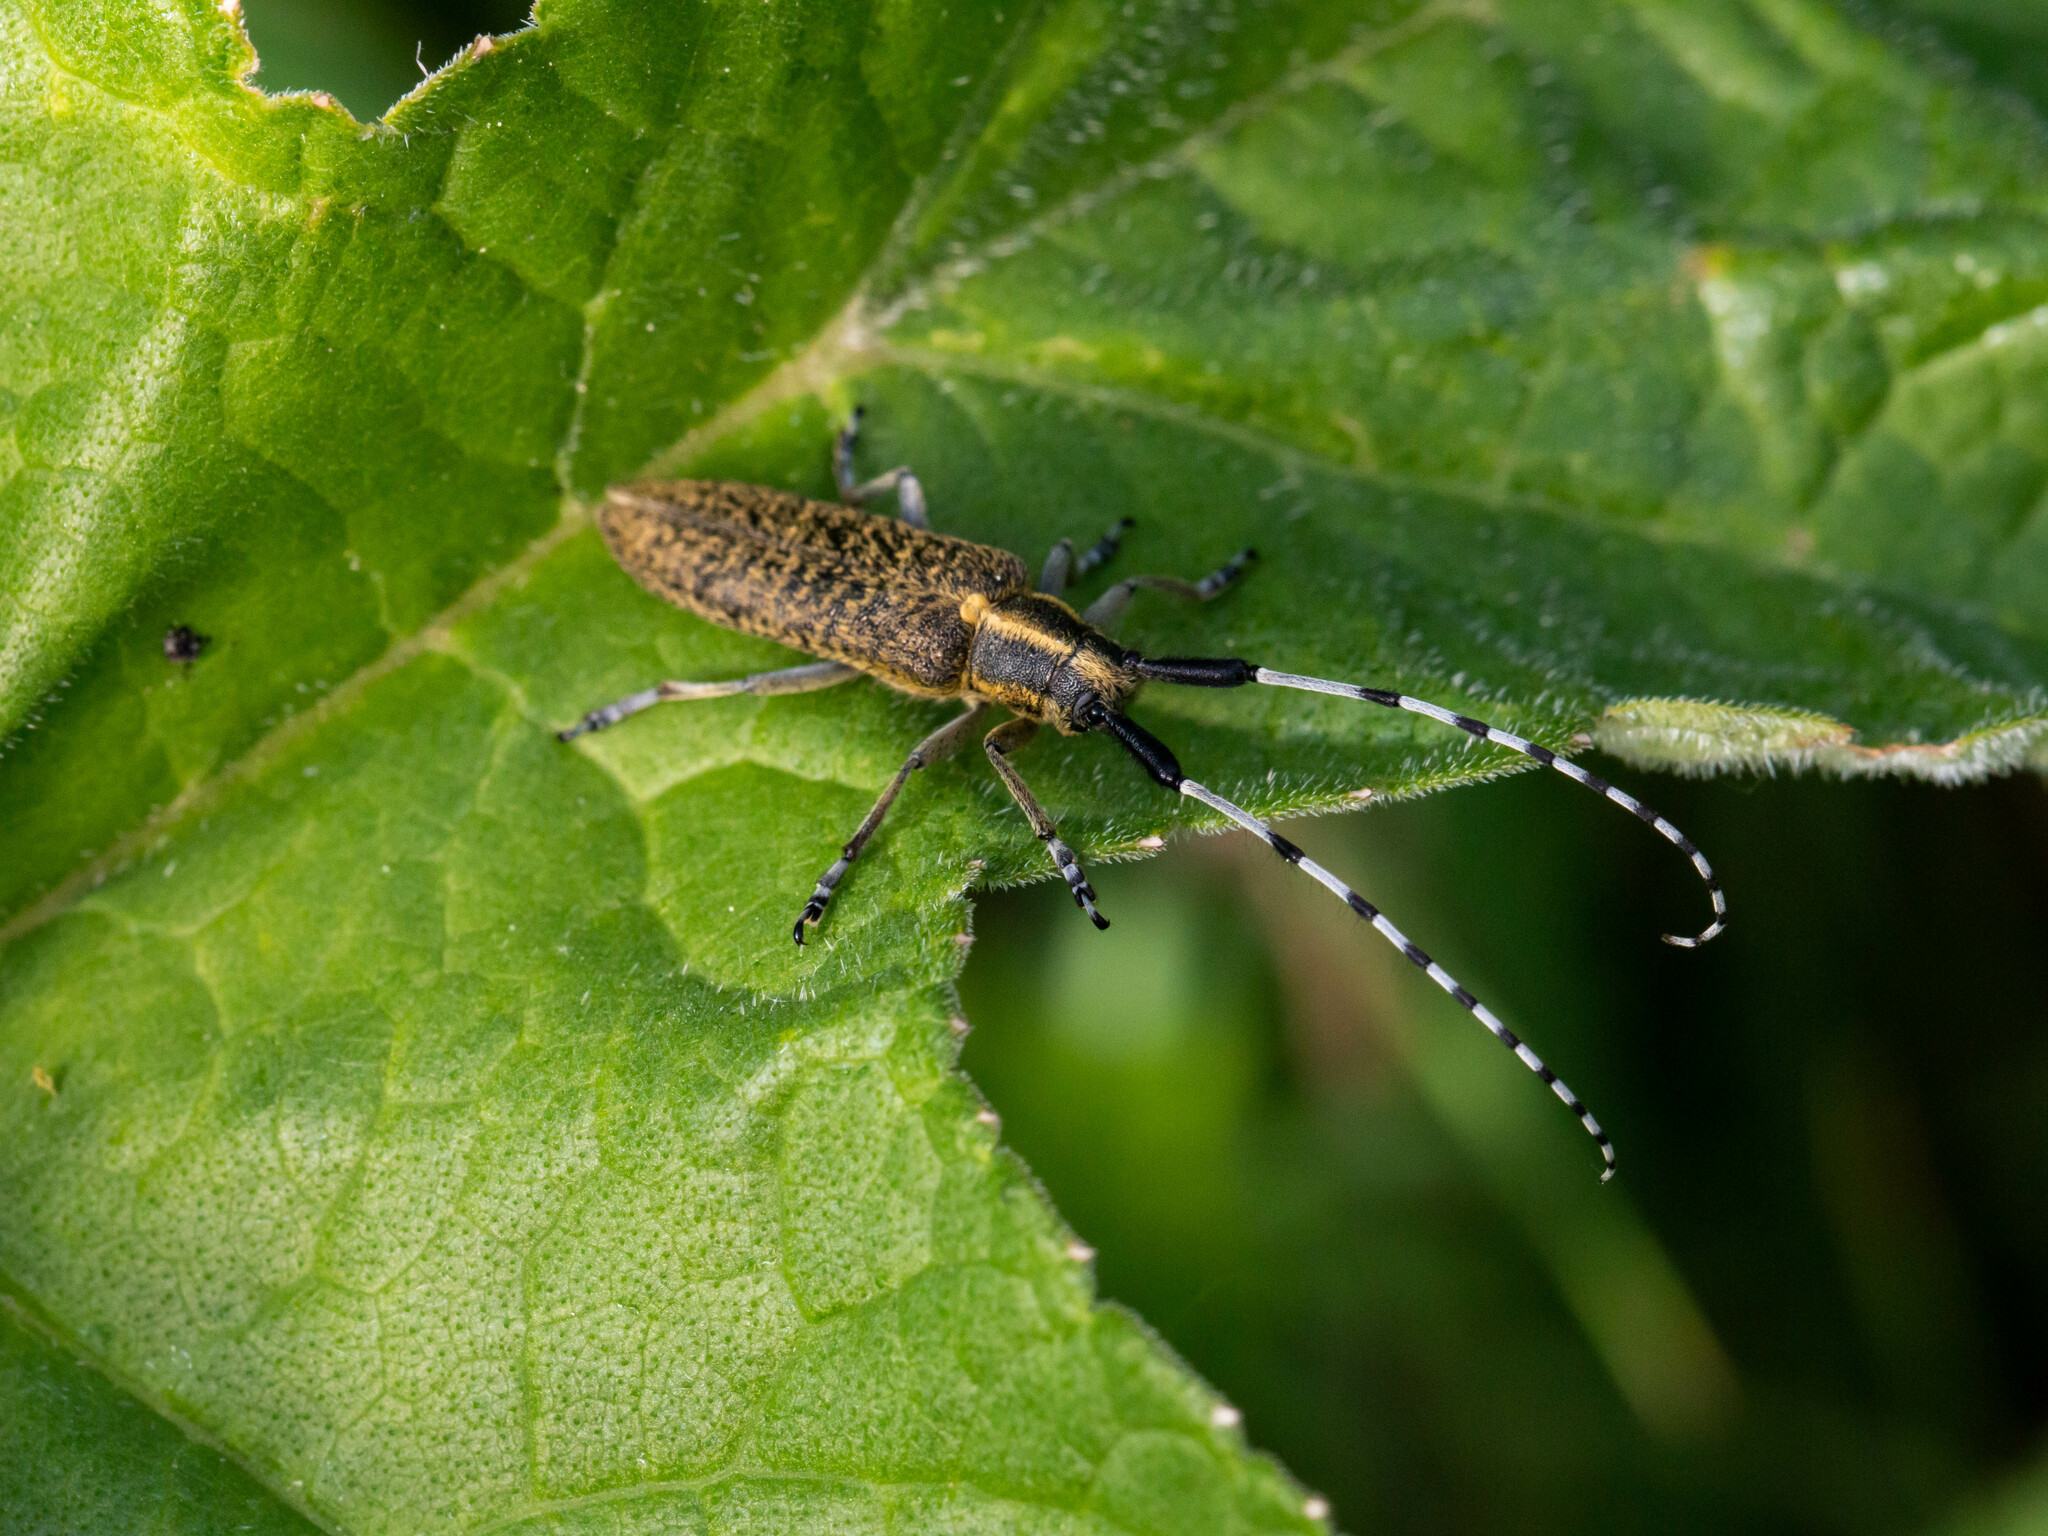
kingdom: Animalia
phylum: Arthropoda
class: Insecta
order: Coleoptera
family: Cerambycidae
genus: Agapanthia
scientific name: Agapanthia villosoviridescens
